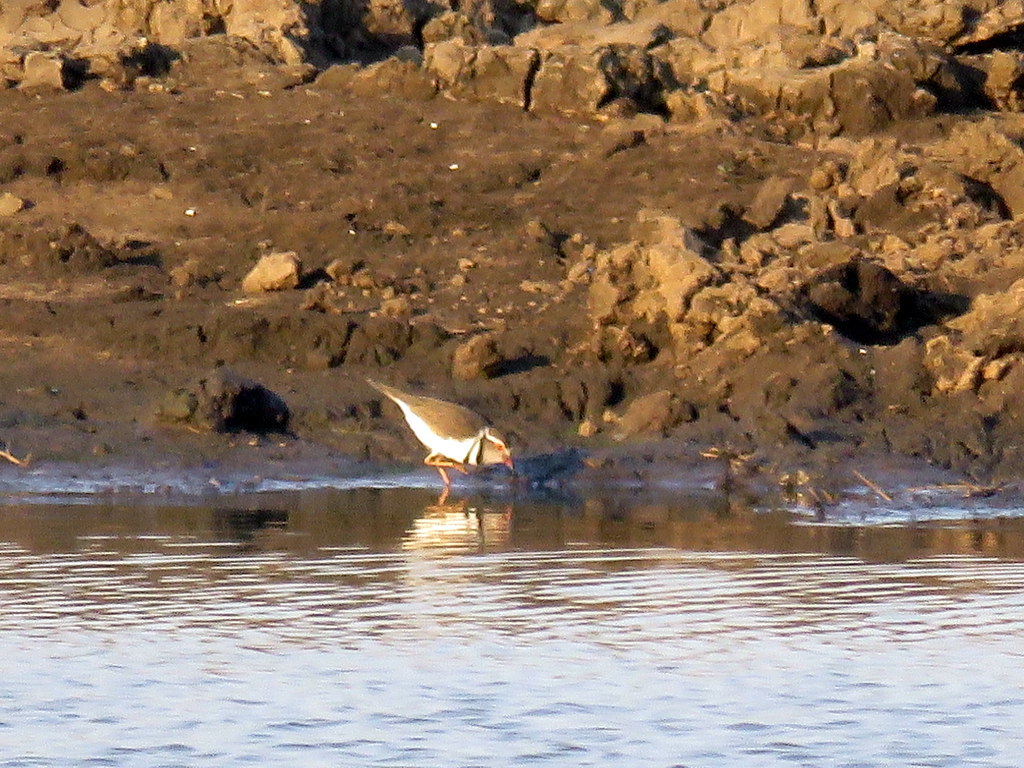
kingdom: Animalia
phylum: Chordata
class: Aves
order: Charadriiformes
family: Charadriidae
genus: Charadrius
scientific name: Charadrius tricollaris
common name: Three-banded plover
